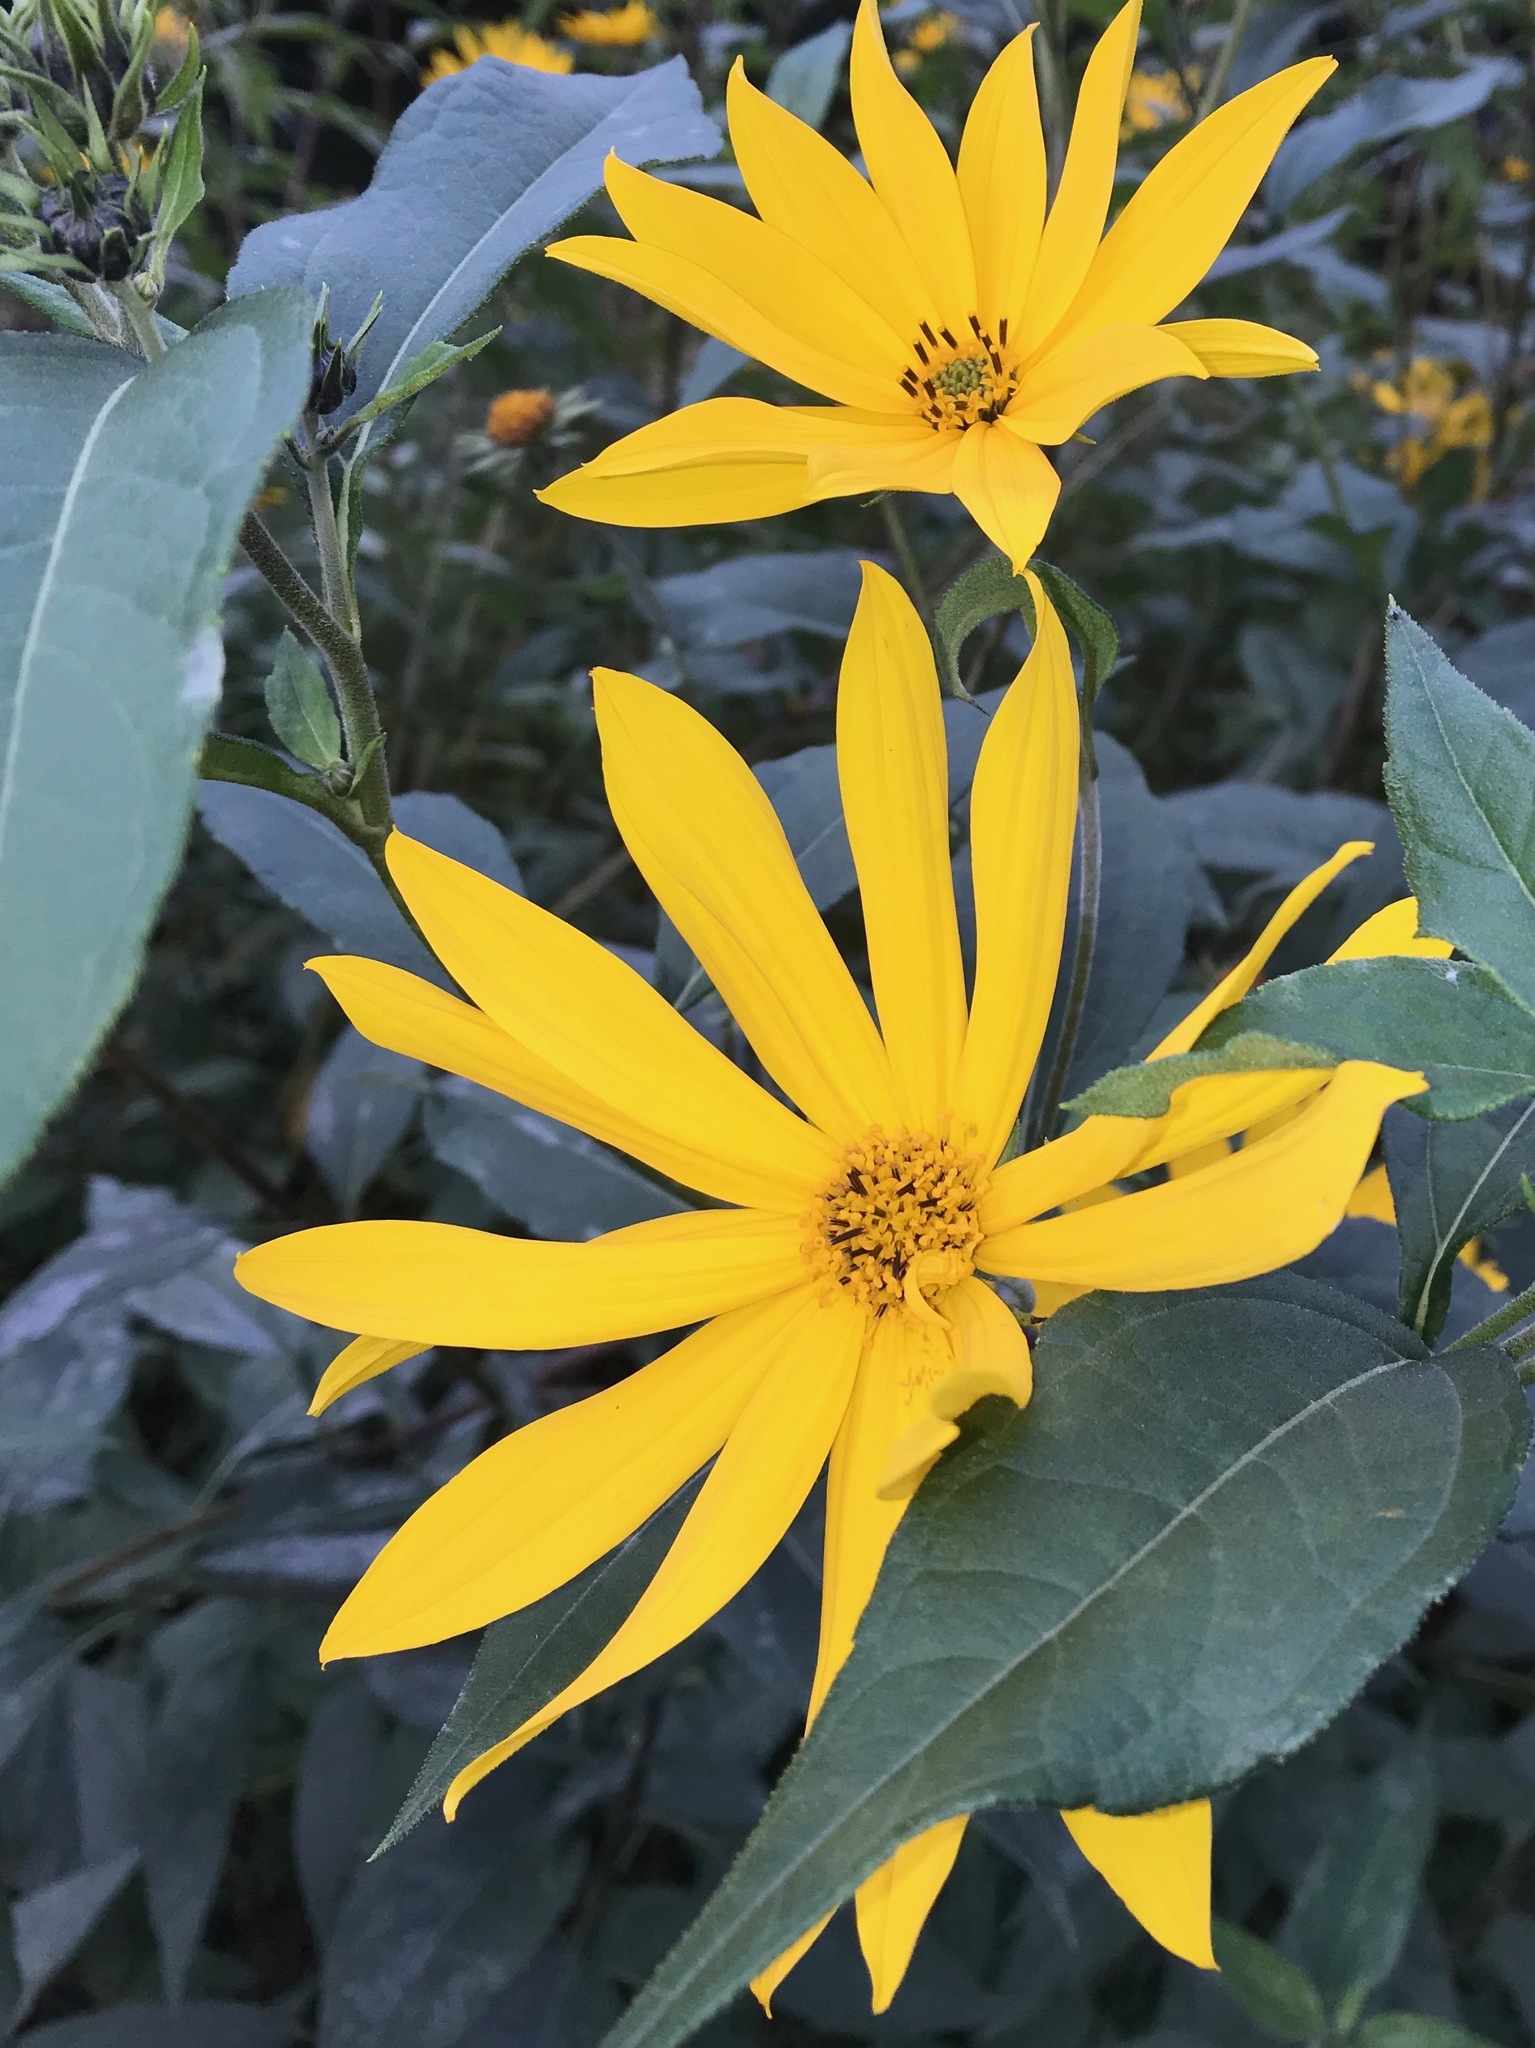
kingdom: Plantae
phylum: Tracheophyta
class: Magnoliopsida
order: Asterales
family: Asteraceae
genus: Helianthus
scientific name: Helianthus tuberosus
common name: Jerusalem artichoke
